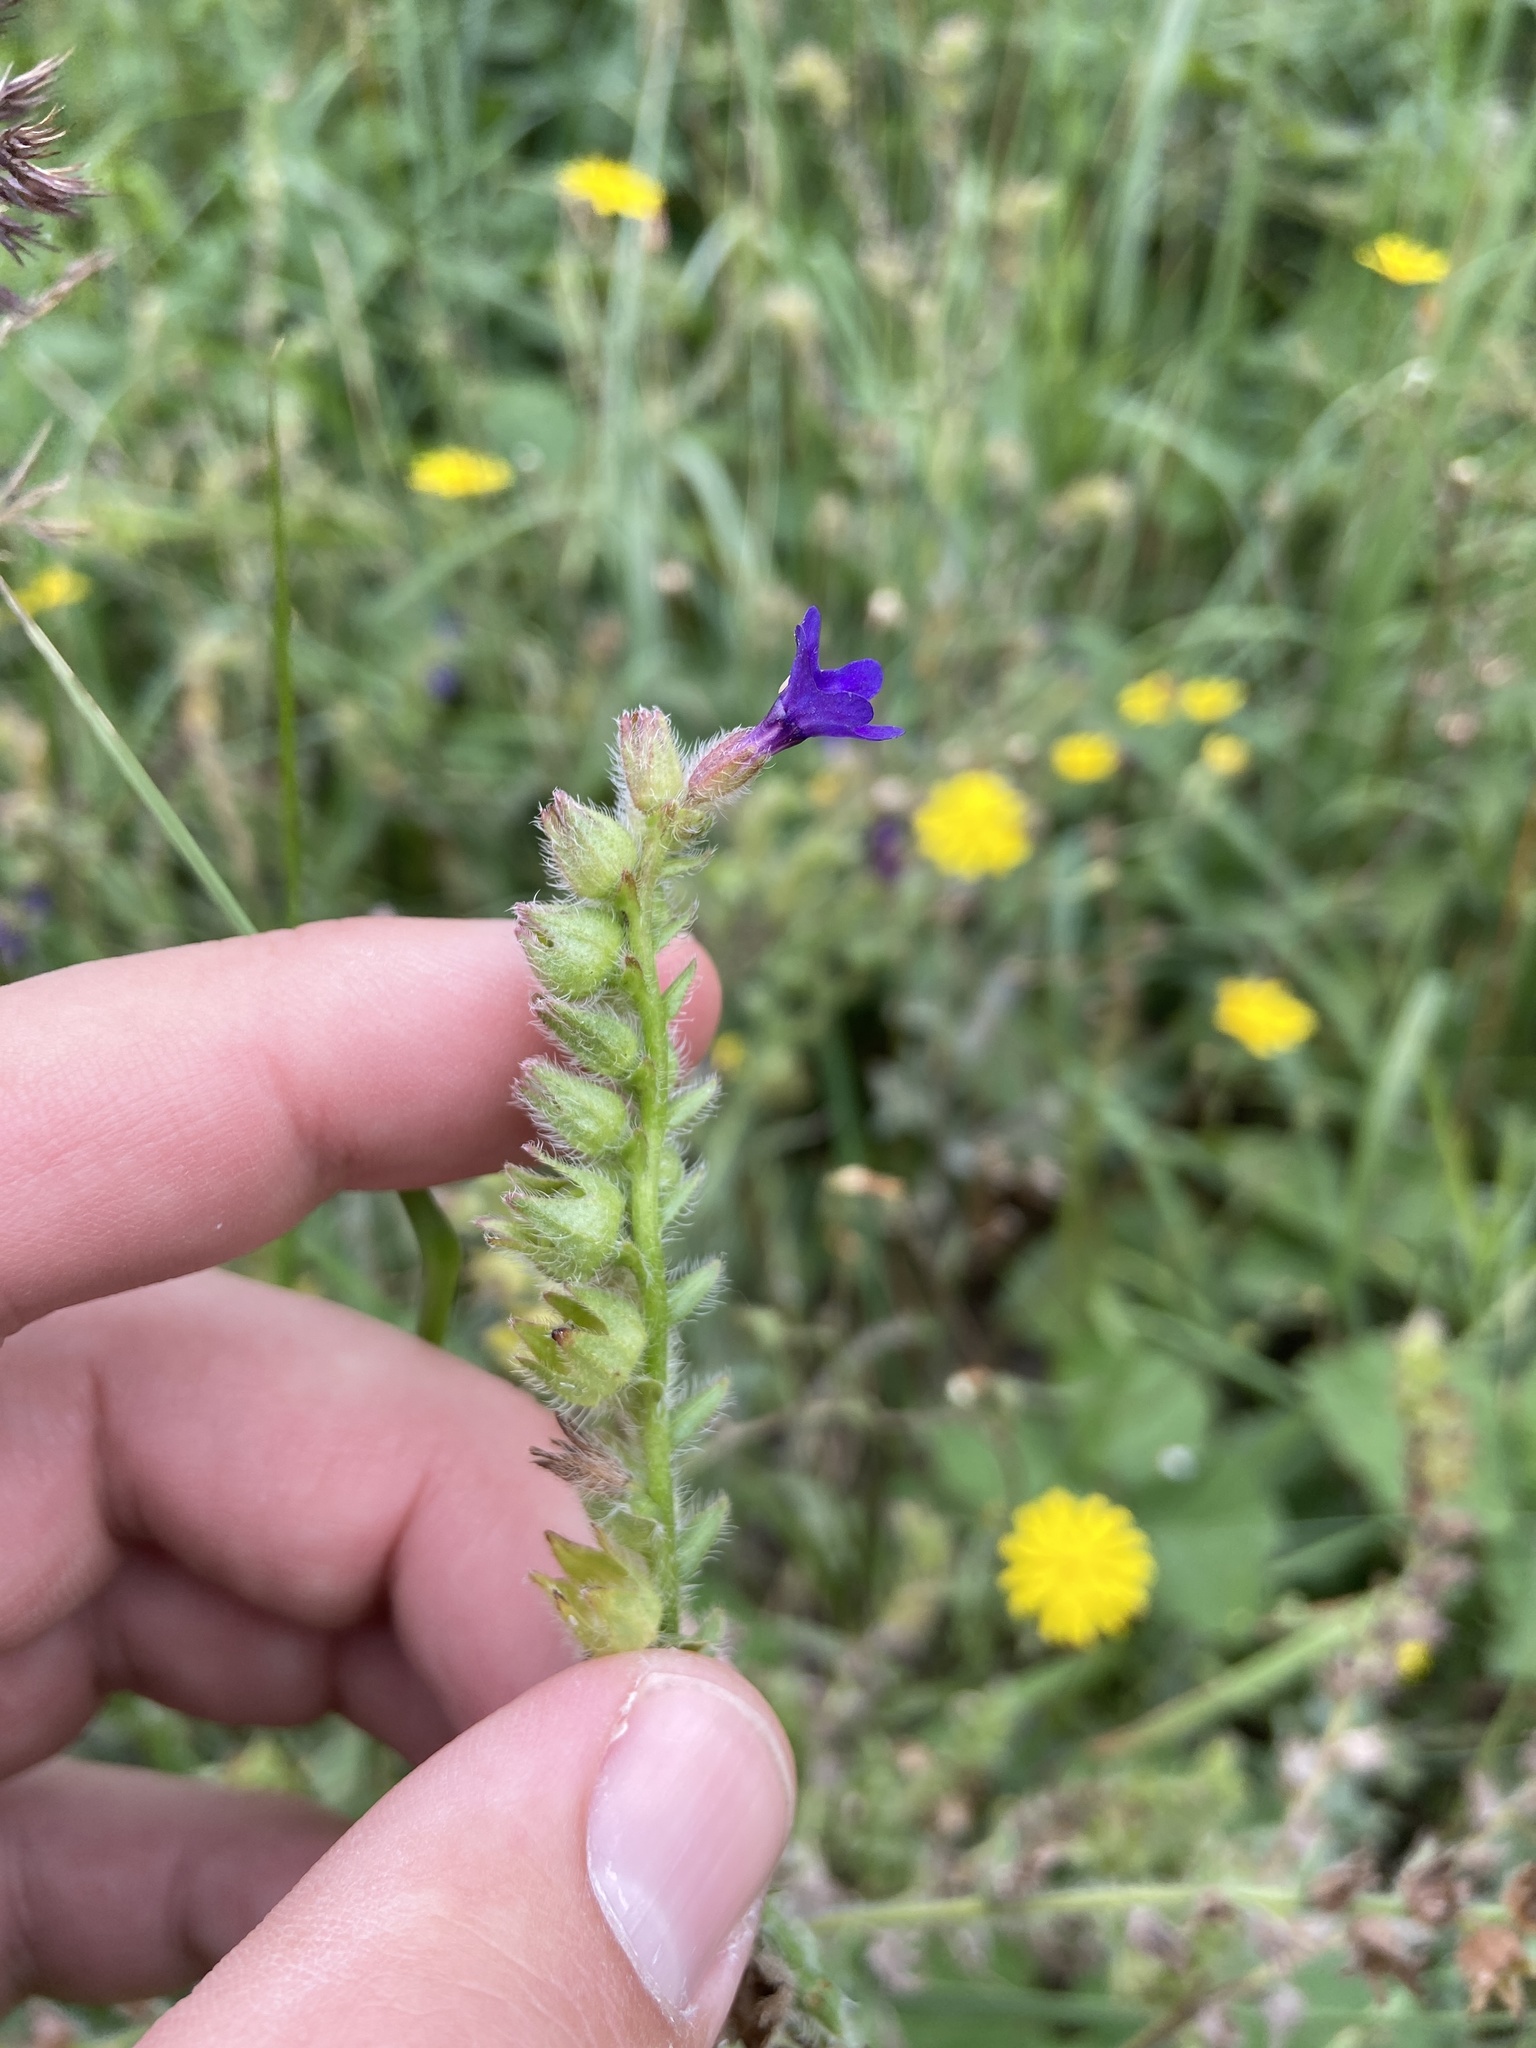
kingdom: Plantae
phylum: Tracheophyta
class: Magnoliopsida
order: Boraginales
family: Boraginaceae
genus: Anchusa
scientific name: Anchusa officinalis
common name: Alkanet
